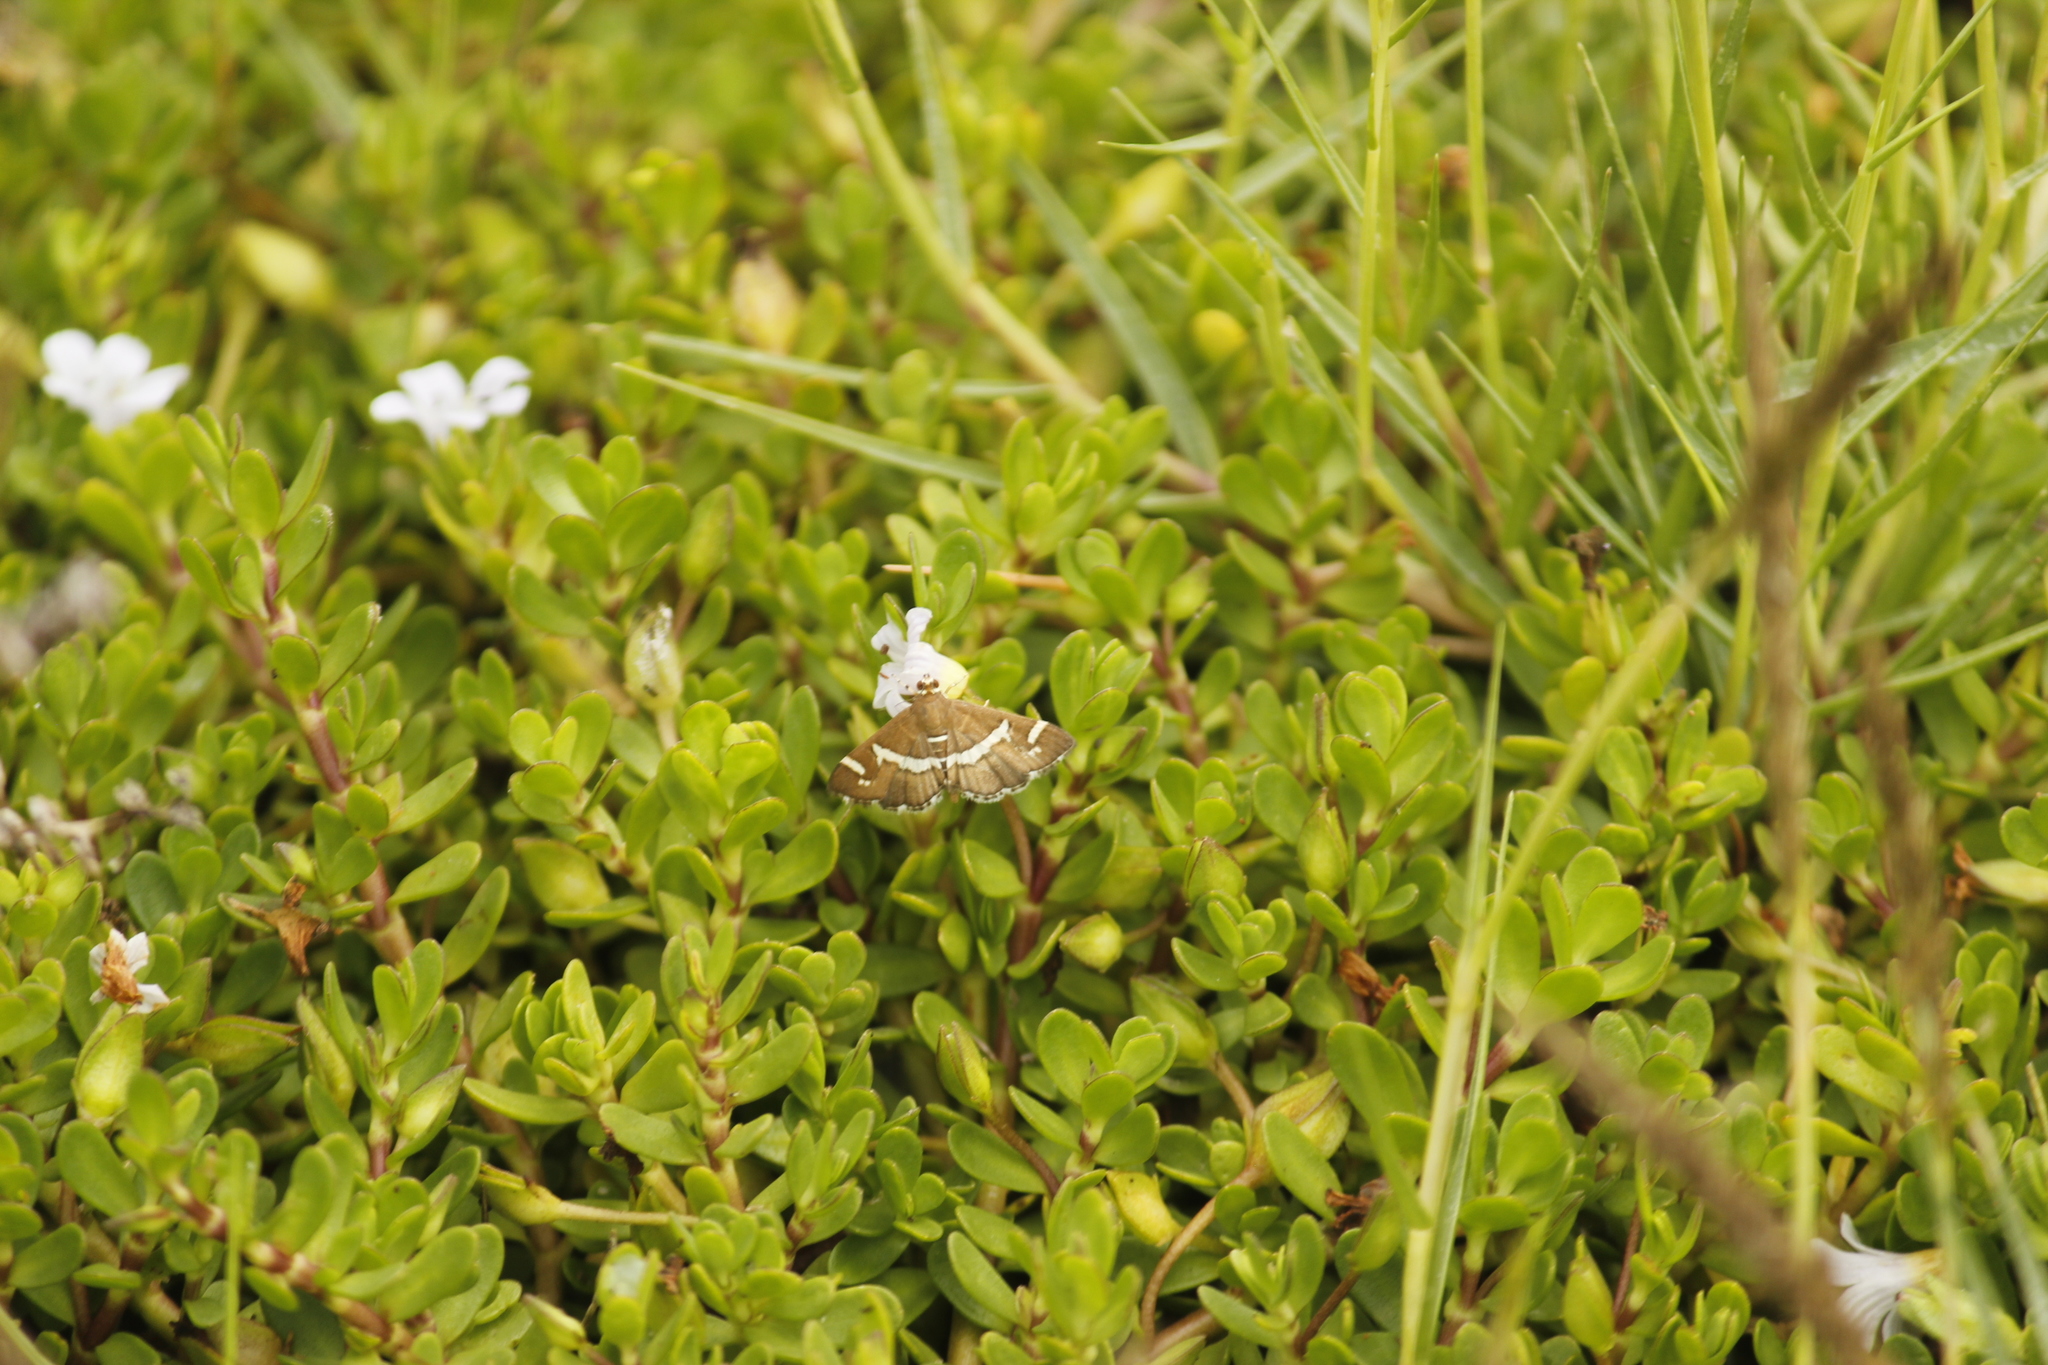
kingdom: Animalia
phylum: Arthropoda
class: Insecta
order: Lepidoptera
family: Crambidae
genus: Spoladea
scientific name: Spoladea recurvalis
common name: Beet webworm moth
